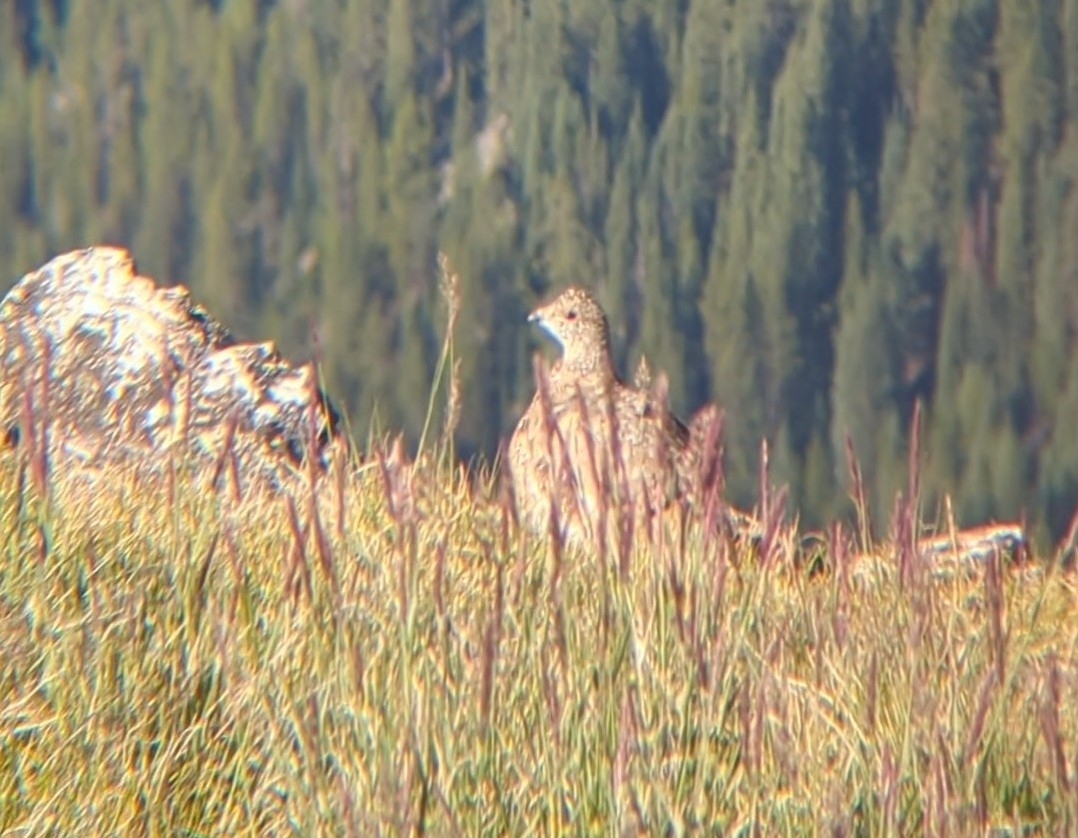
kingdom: Animalia
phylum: Chordata
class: Aves
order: Galliformes
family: Phasianidae
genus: Lagopus
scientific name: Lagopus leucura
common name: White-tailed ptarmigan
